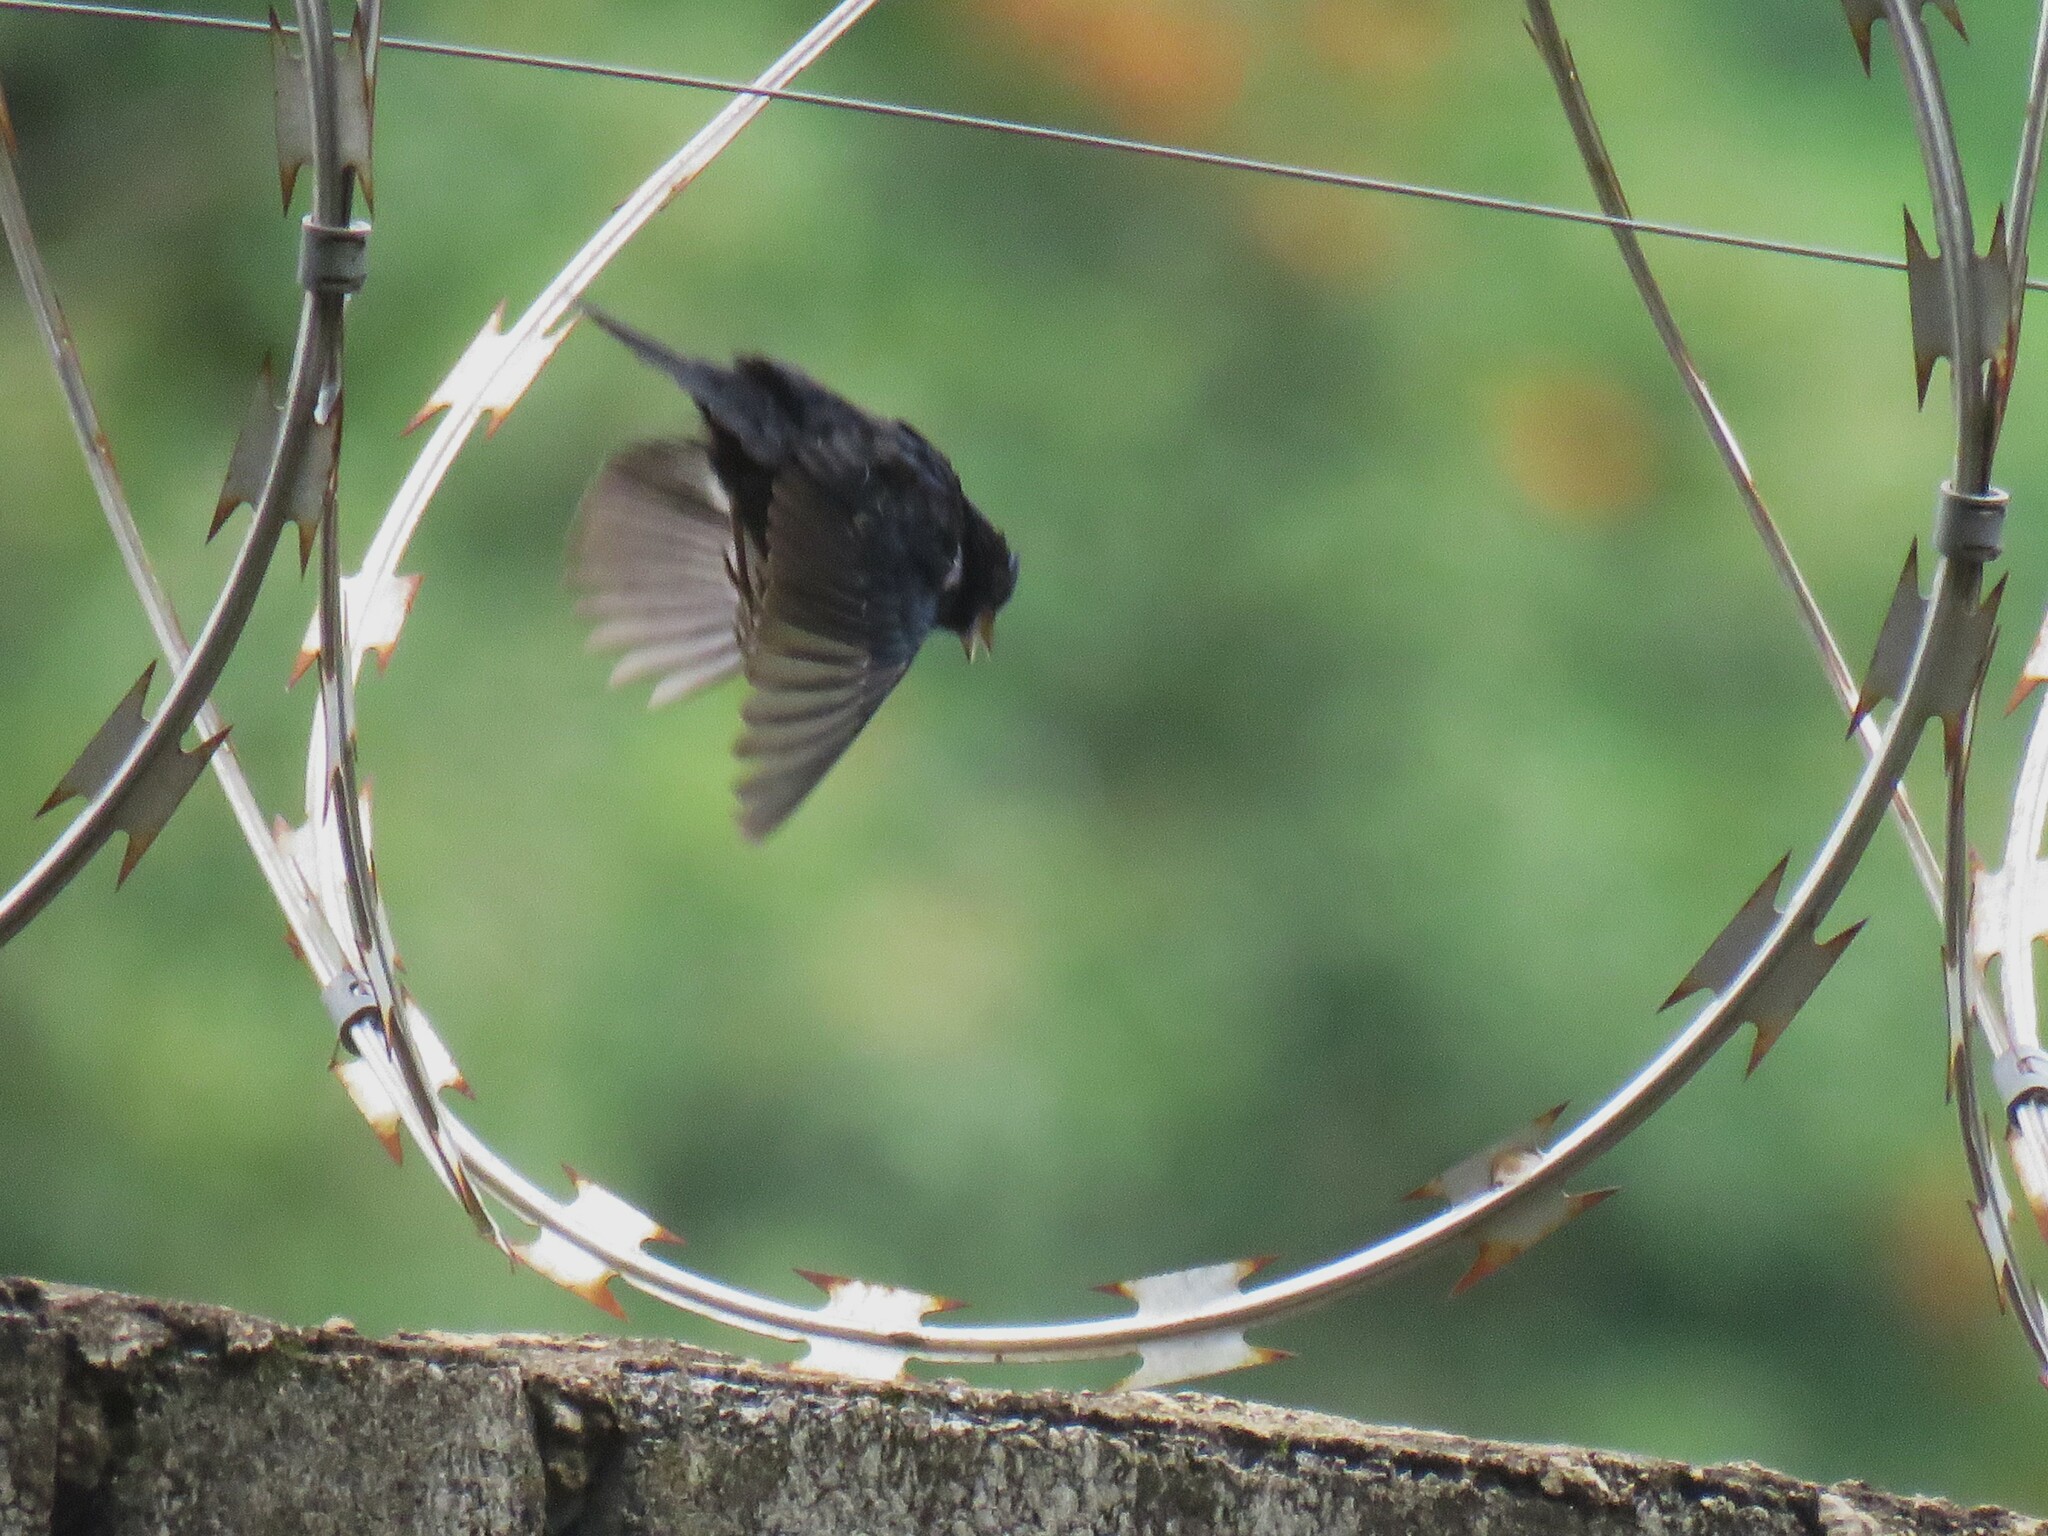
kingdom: Animalia
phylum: Chordata
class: Aves
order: Passeriformes
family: Thraupidae
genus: Volatinia
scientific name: Volatinia jacarina
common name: Blue-black grassquit
